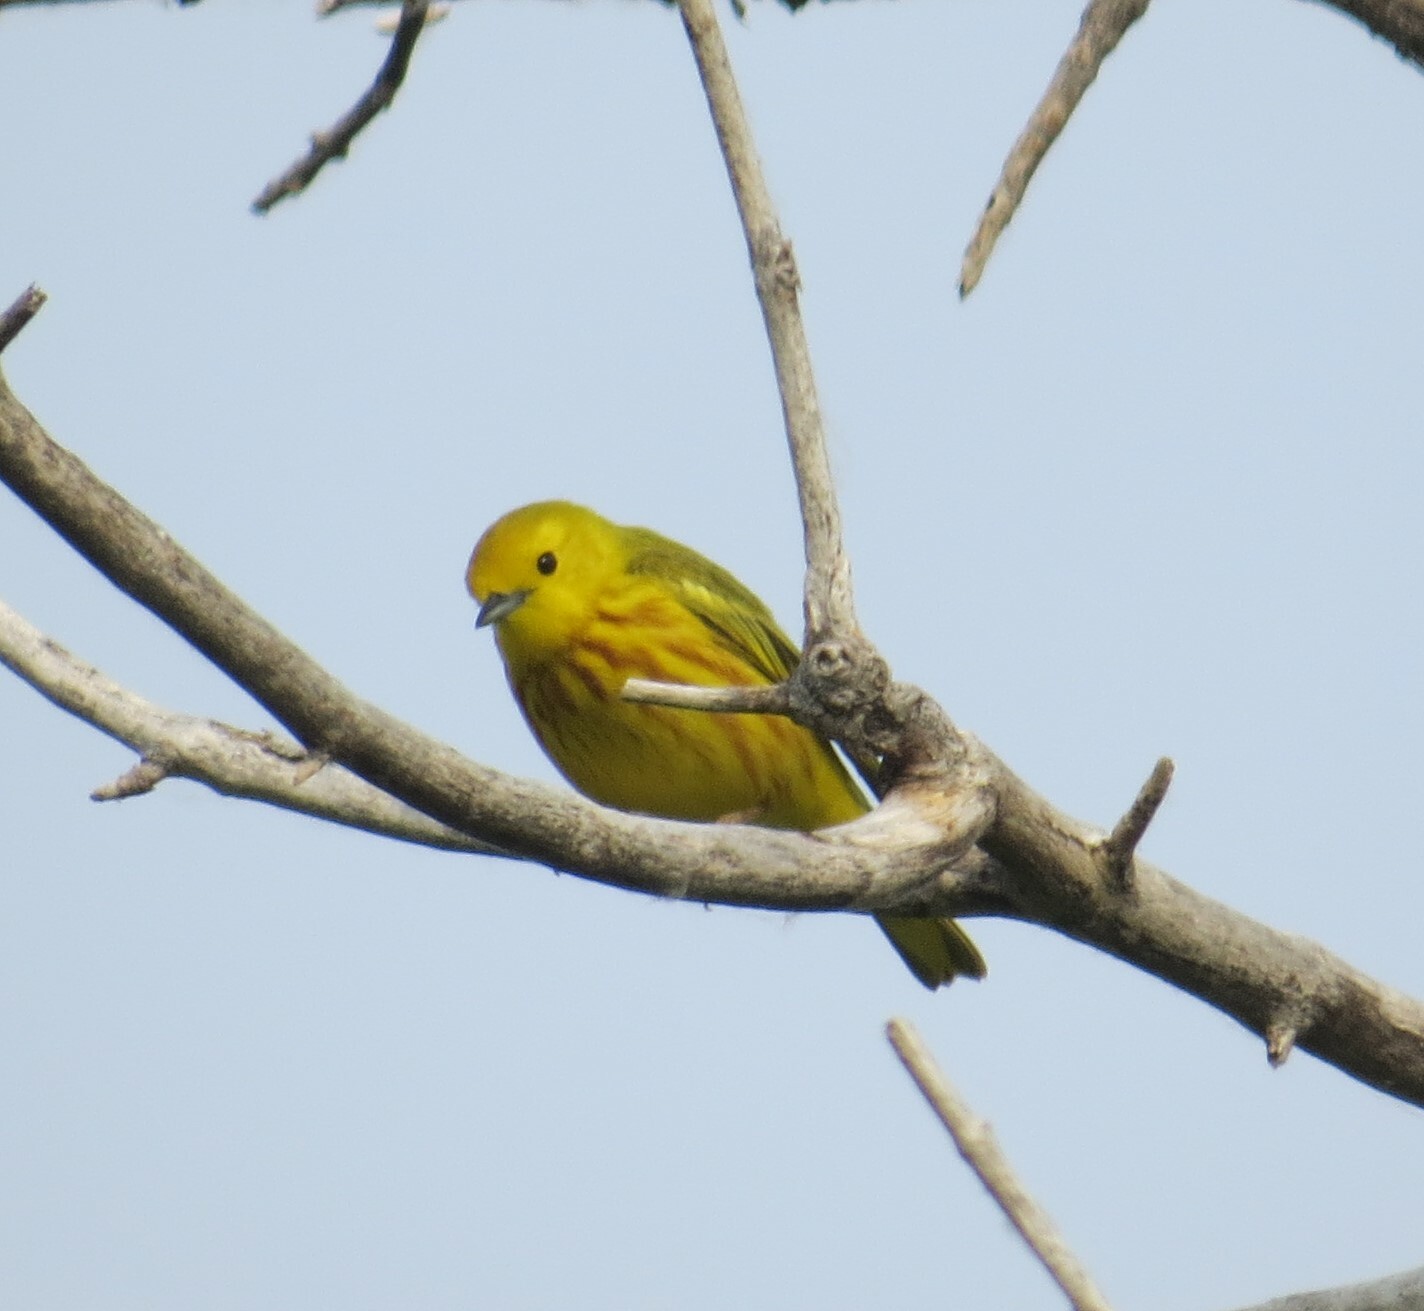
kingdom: Animalia
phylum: Chordata
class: Aves
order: Passeriformes
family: Parulidae
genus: Setophaga
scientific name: Setophaga petechia
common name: Yellow warbler
